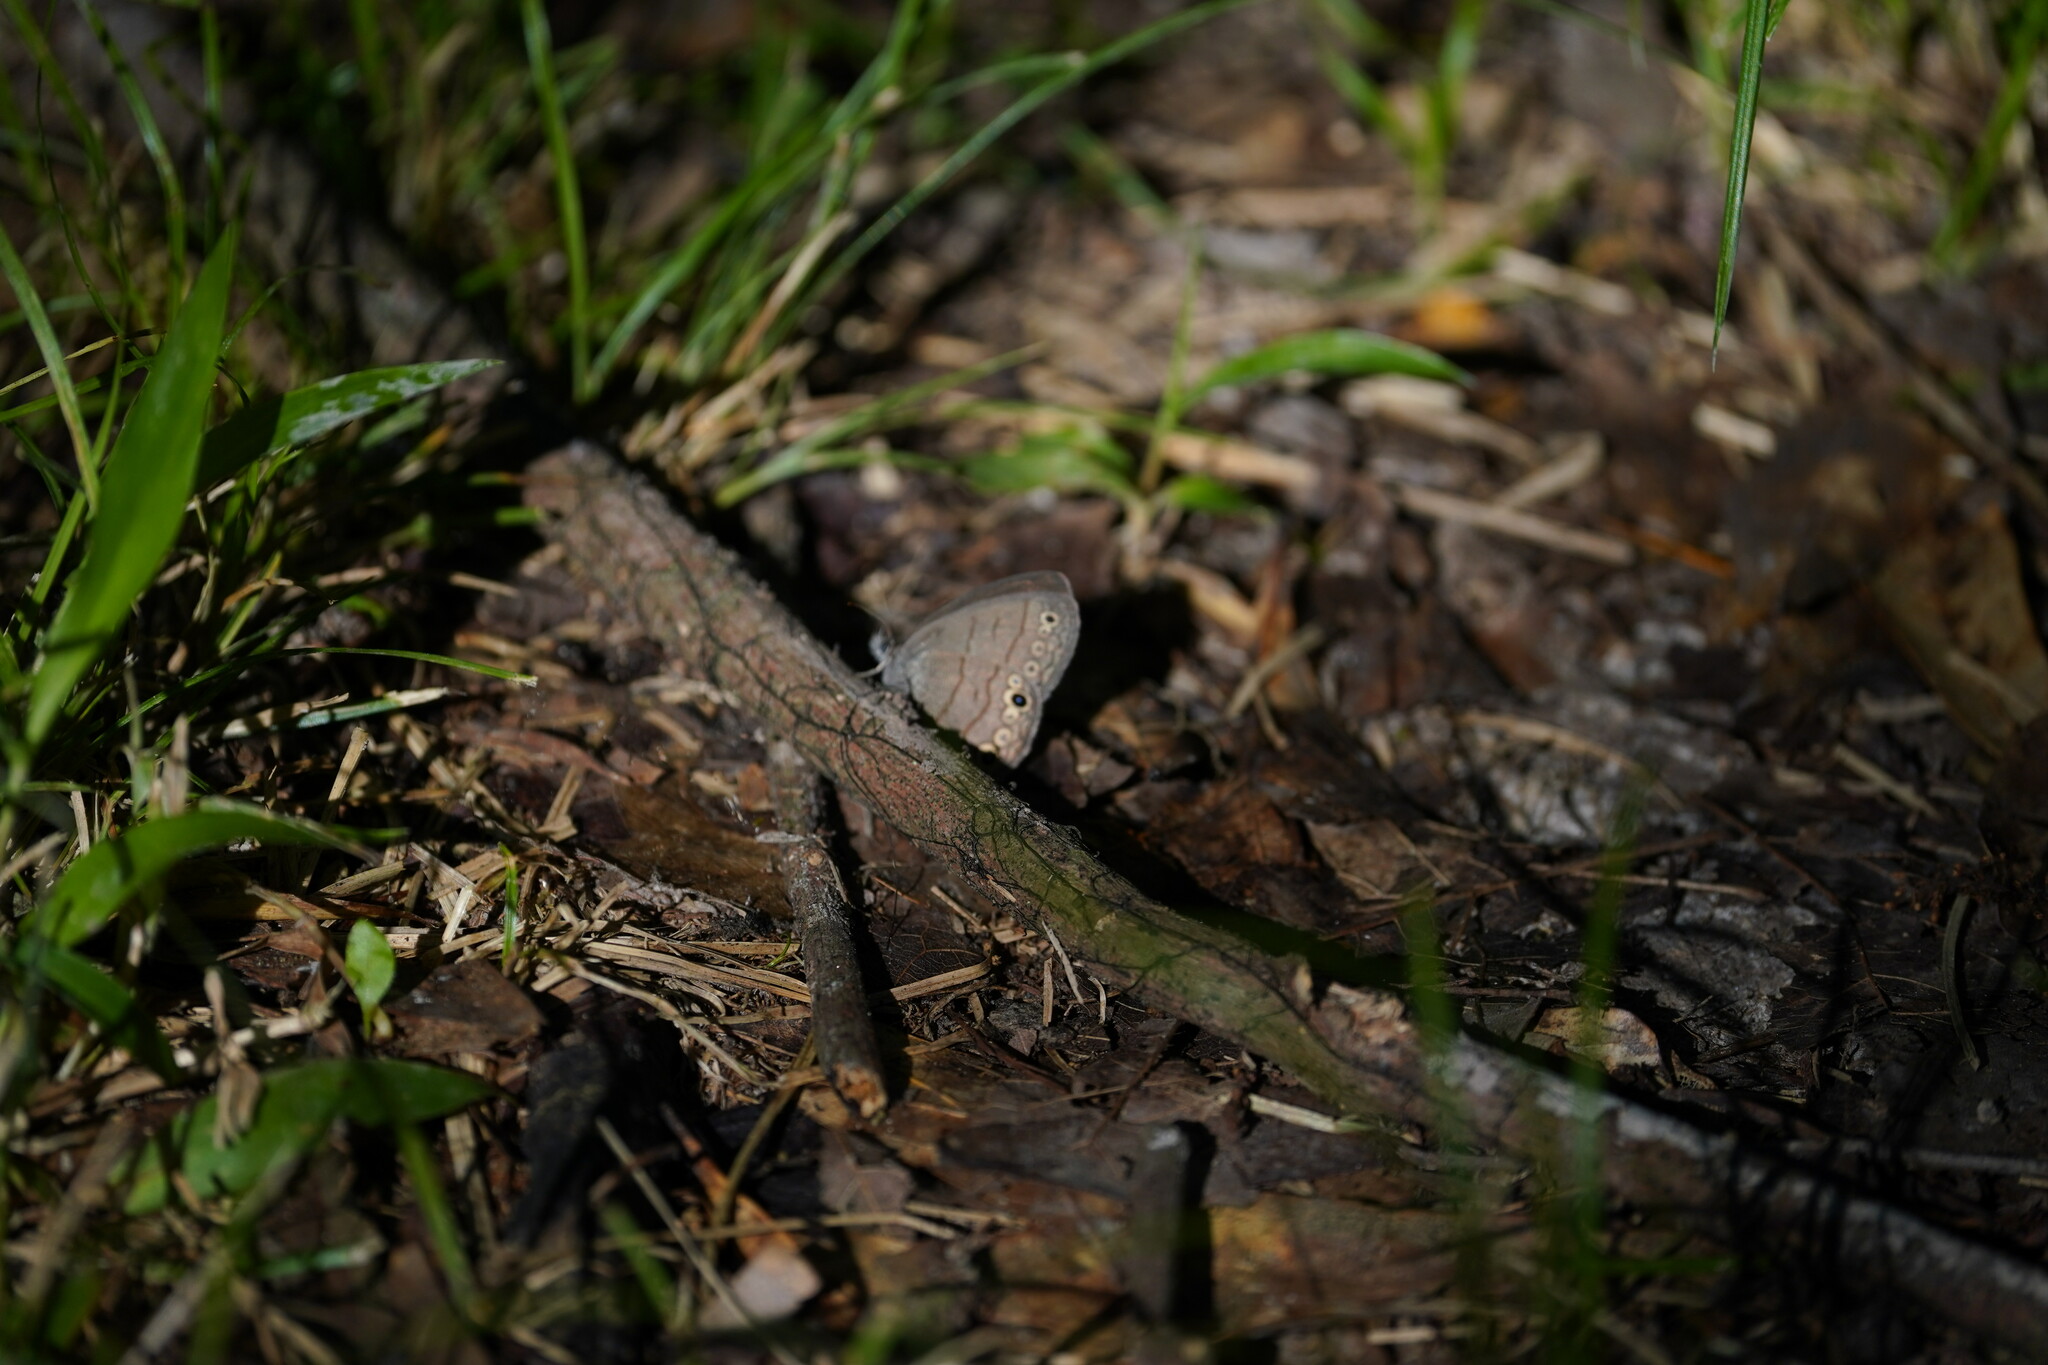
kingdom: Animalia
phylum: Arthropoda
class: Insecta
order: Lepidoptera
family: Nymphalidae
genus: Hermeuptychia
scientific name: Hermeuptychia hermes
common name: Hermes satyr
